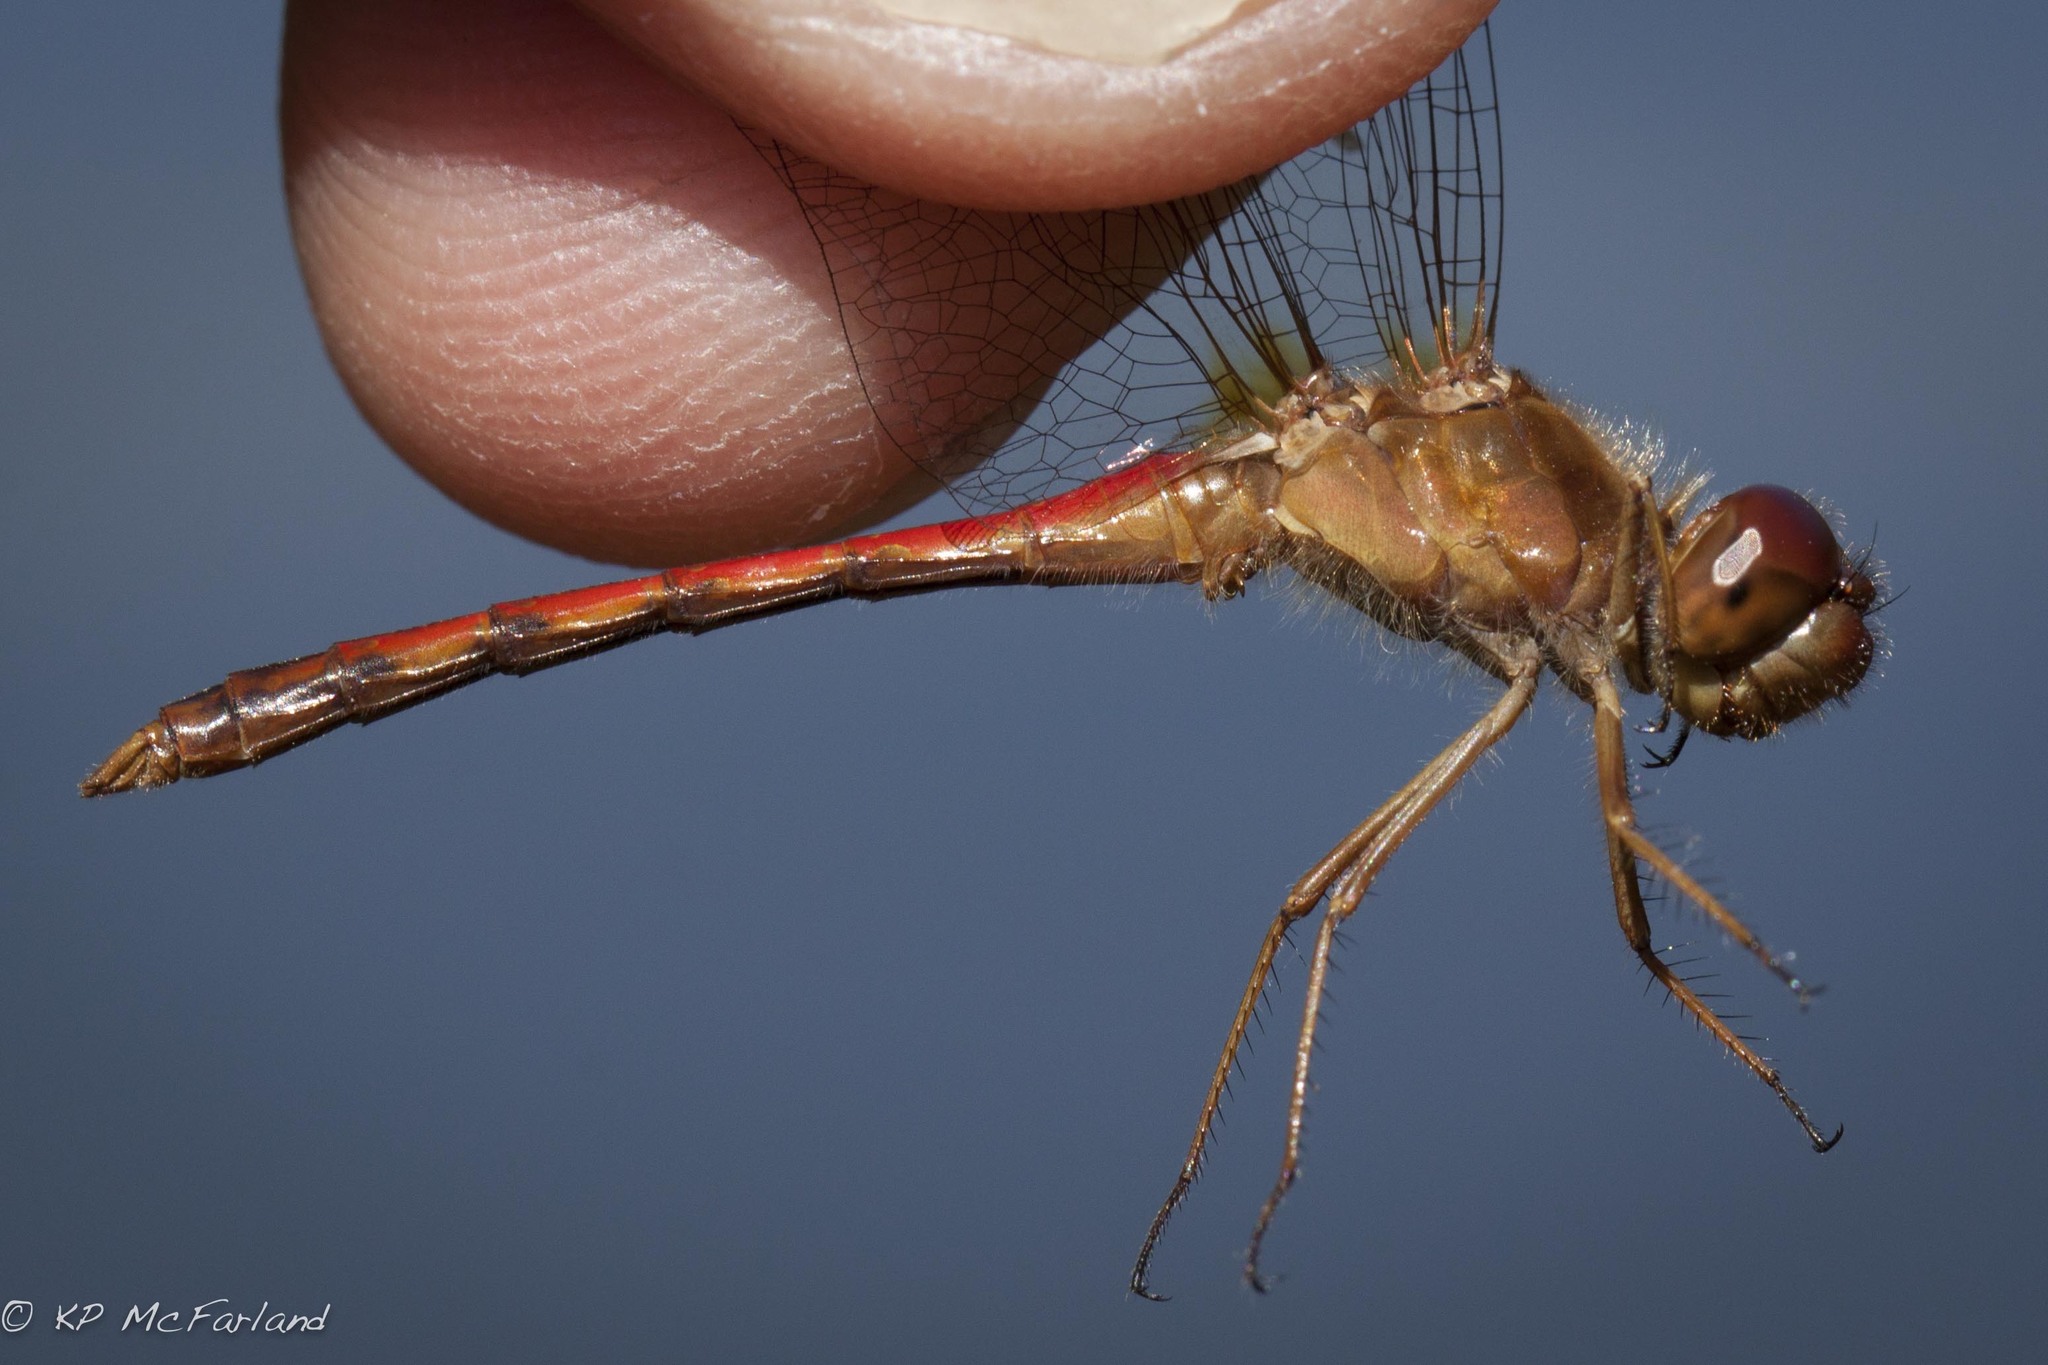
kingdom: Animalia
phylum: Arthropoda
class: Insecta
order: Odonata
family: Libellulidae
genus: Sympetrum
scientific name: Sympetrum vicinum
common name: Autumn meadowhawk
